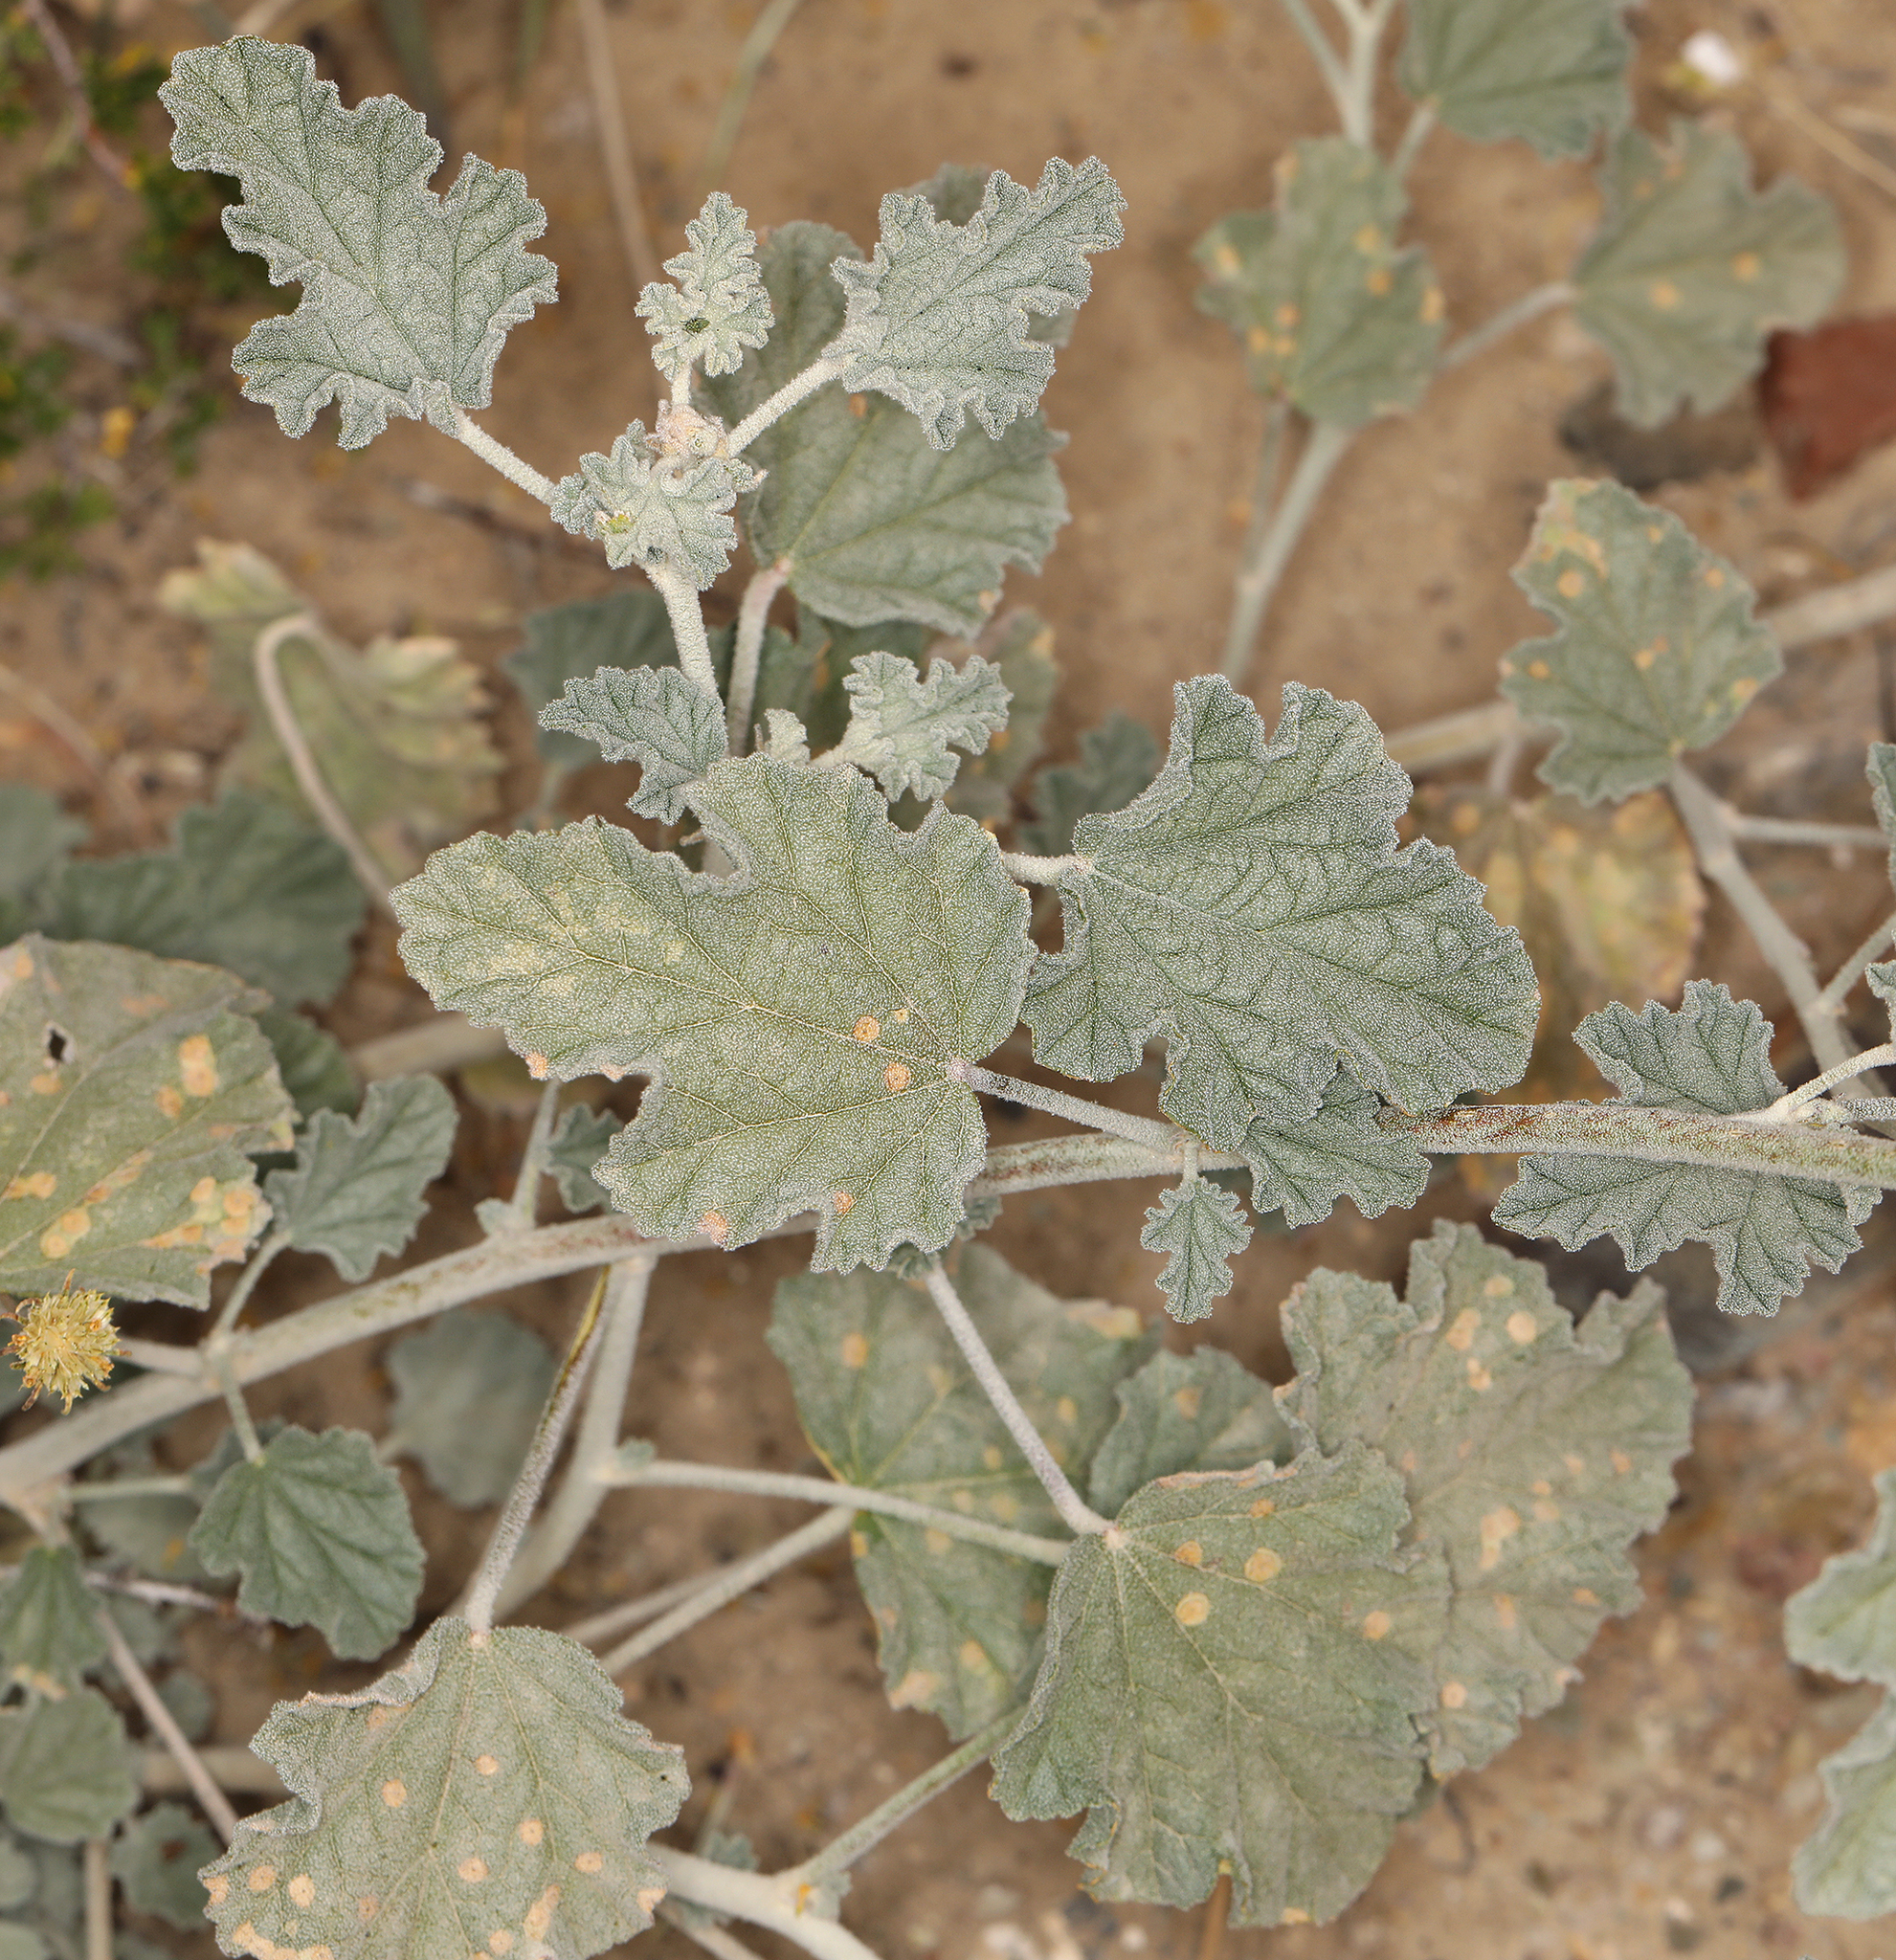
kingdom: Plantae
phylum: Tracheophyta
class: Magnoliopsida
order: Malvales
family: Malvaceae
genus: Sphaeralcea
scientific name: Sphaeralcea ambigua
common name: Apricot globe-mallow
